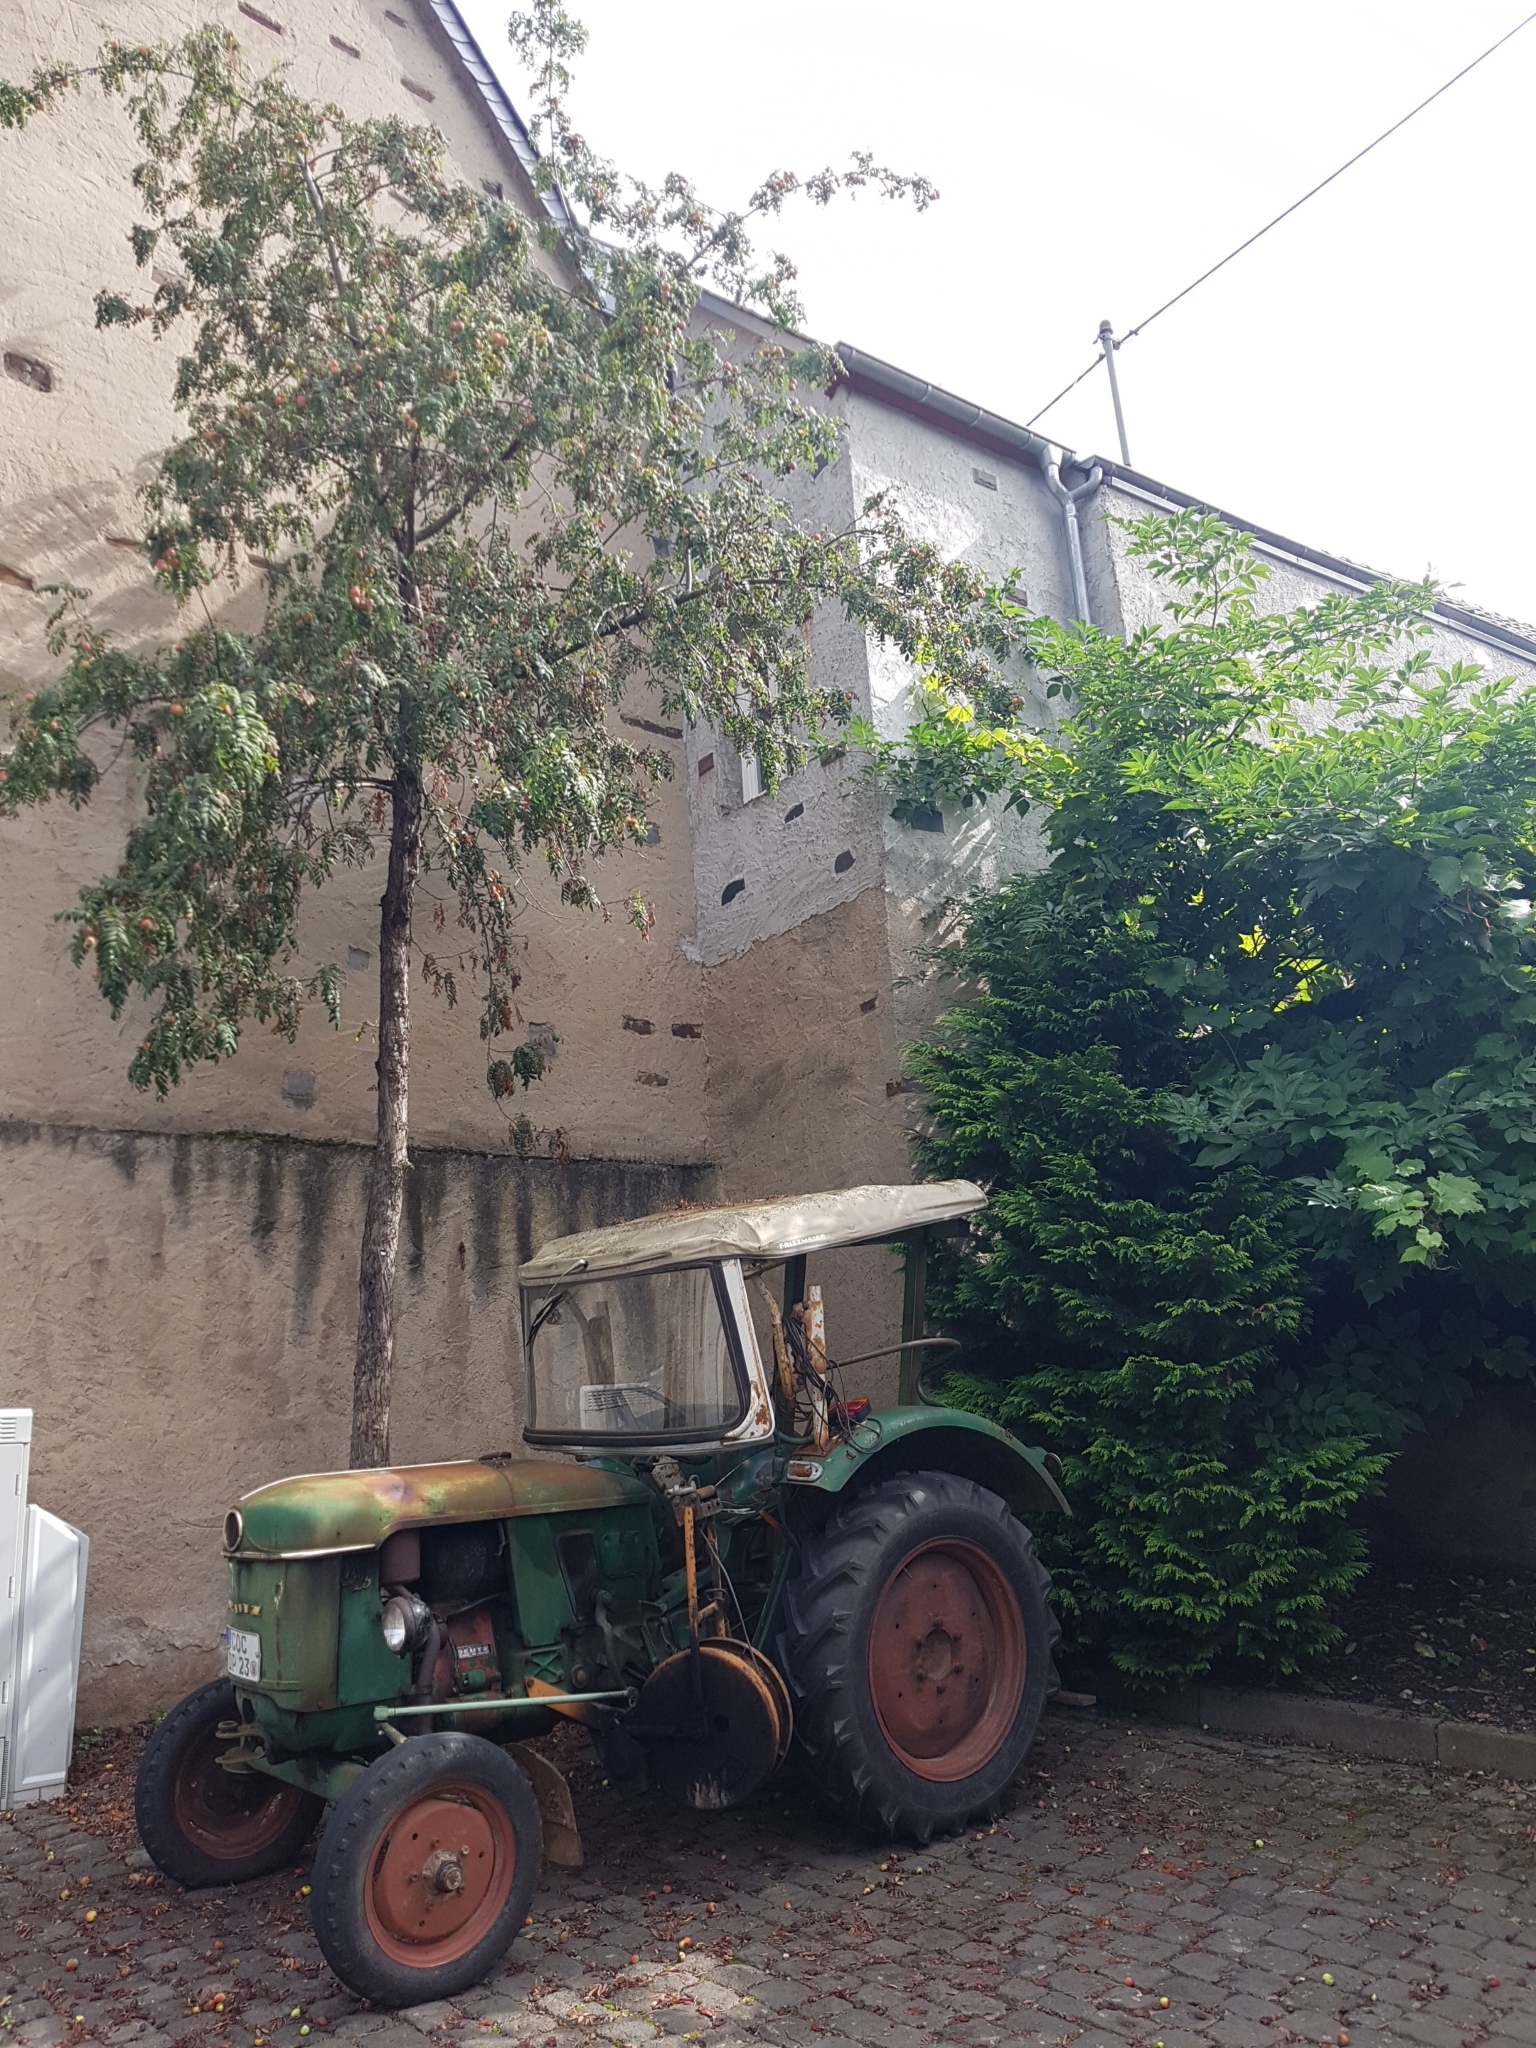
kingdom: Plantae
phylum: Tracheophyta
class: Magnoliopsida
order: Rosales
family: Rosaceae
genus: Cormus
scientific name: Cormus domestica
